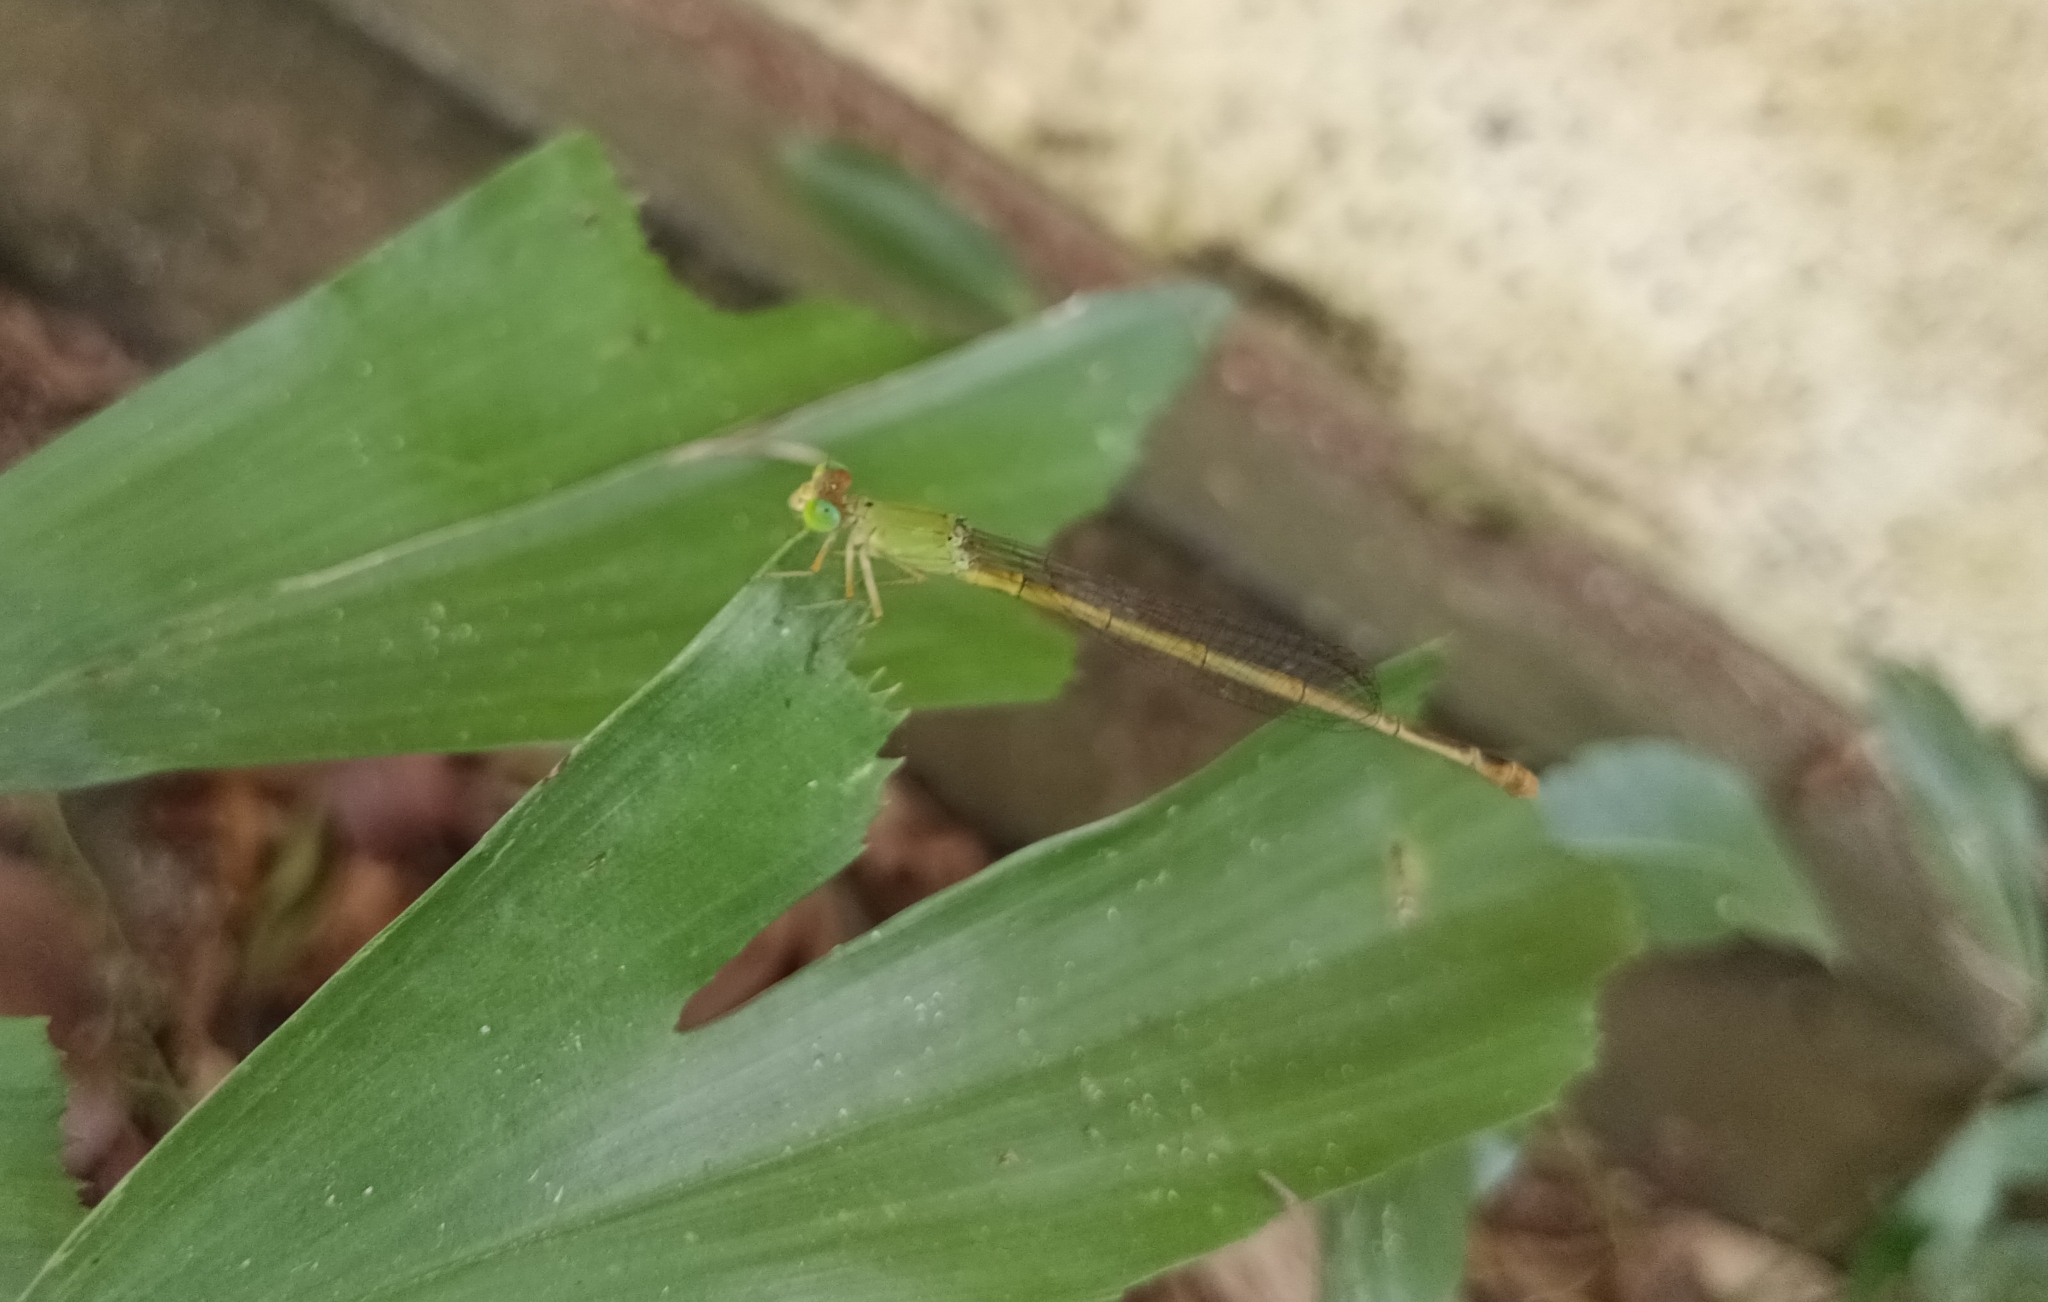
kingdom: Animalia
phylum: Arthropoda
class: Insecta
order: Odonata
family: Coenagrionidae
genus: Ceriagrion
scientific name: Ceriagrion coromandelianum
